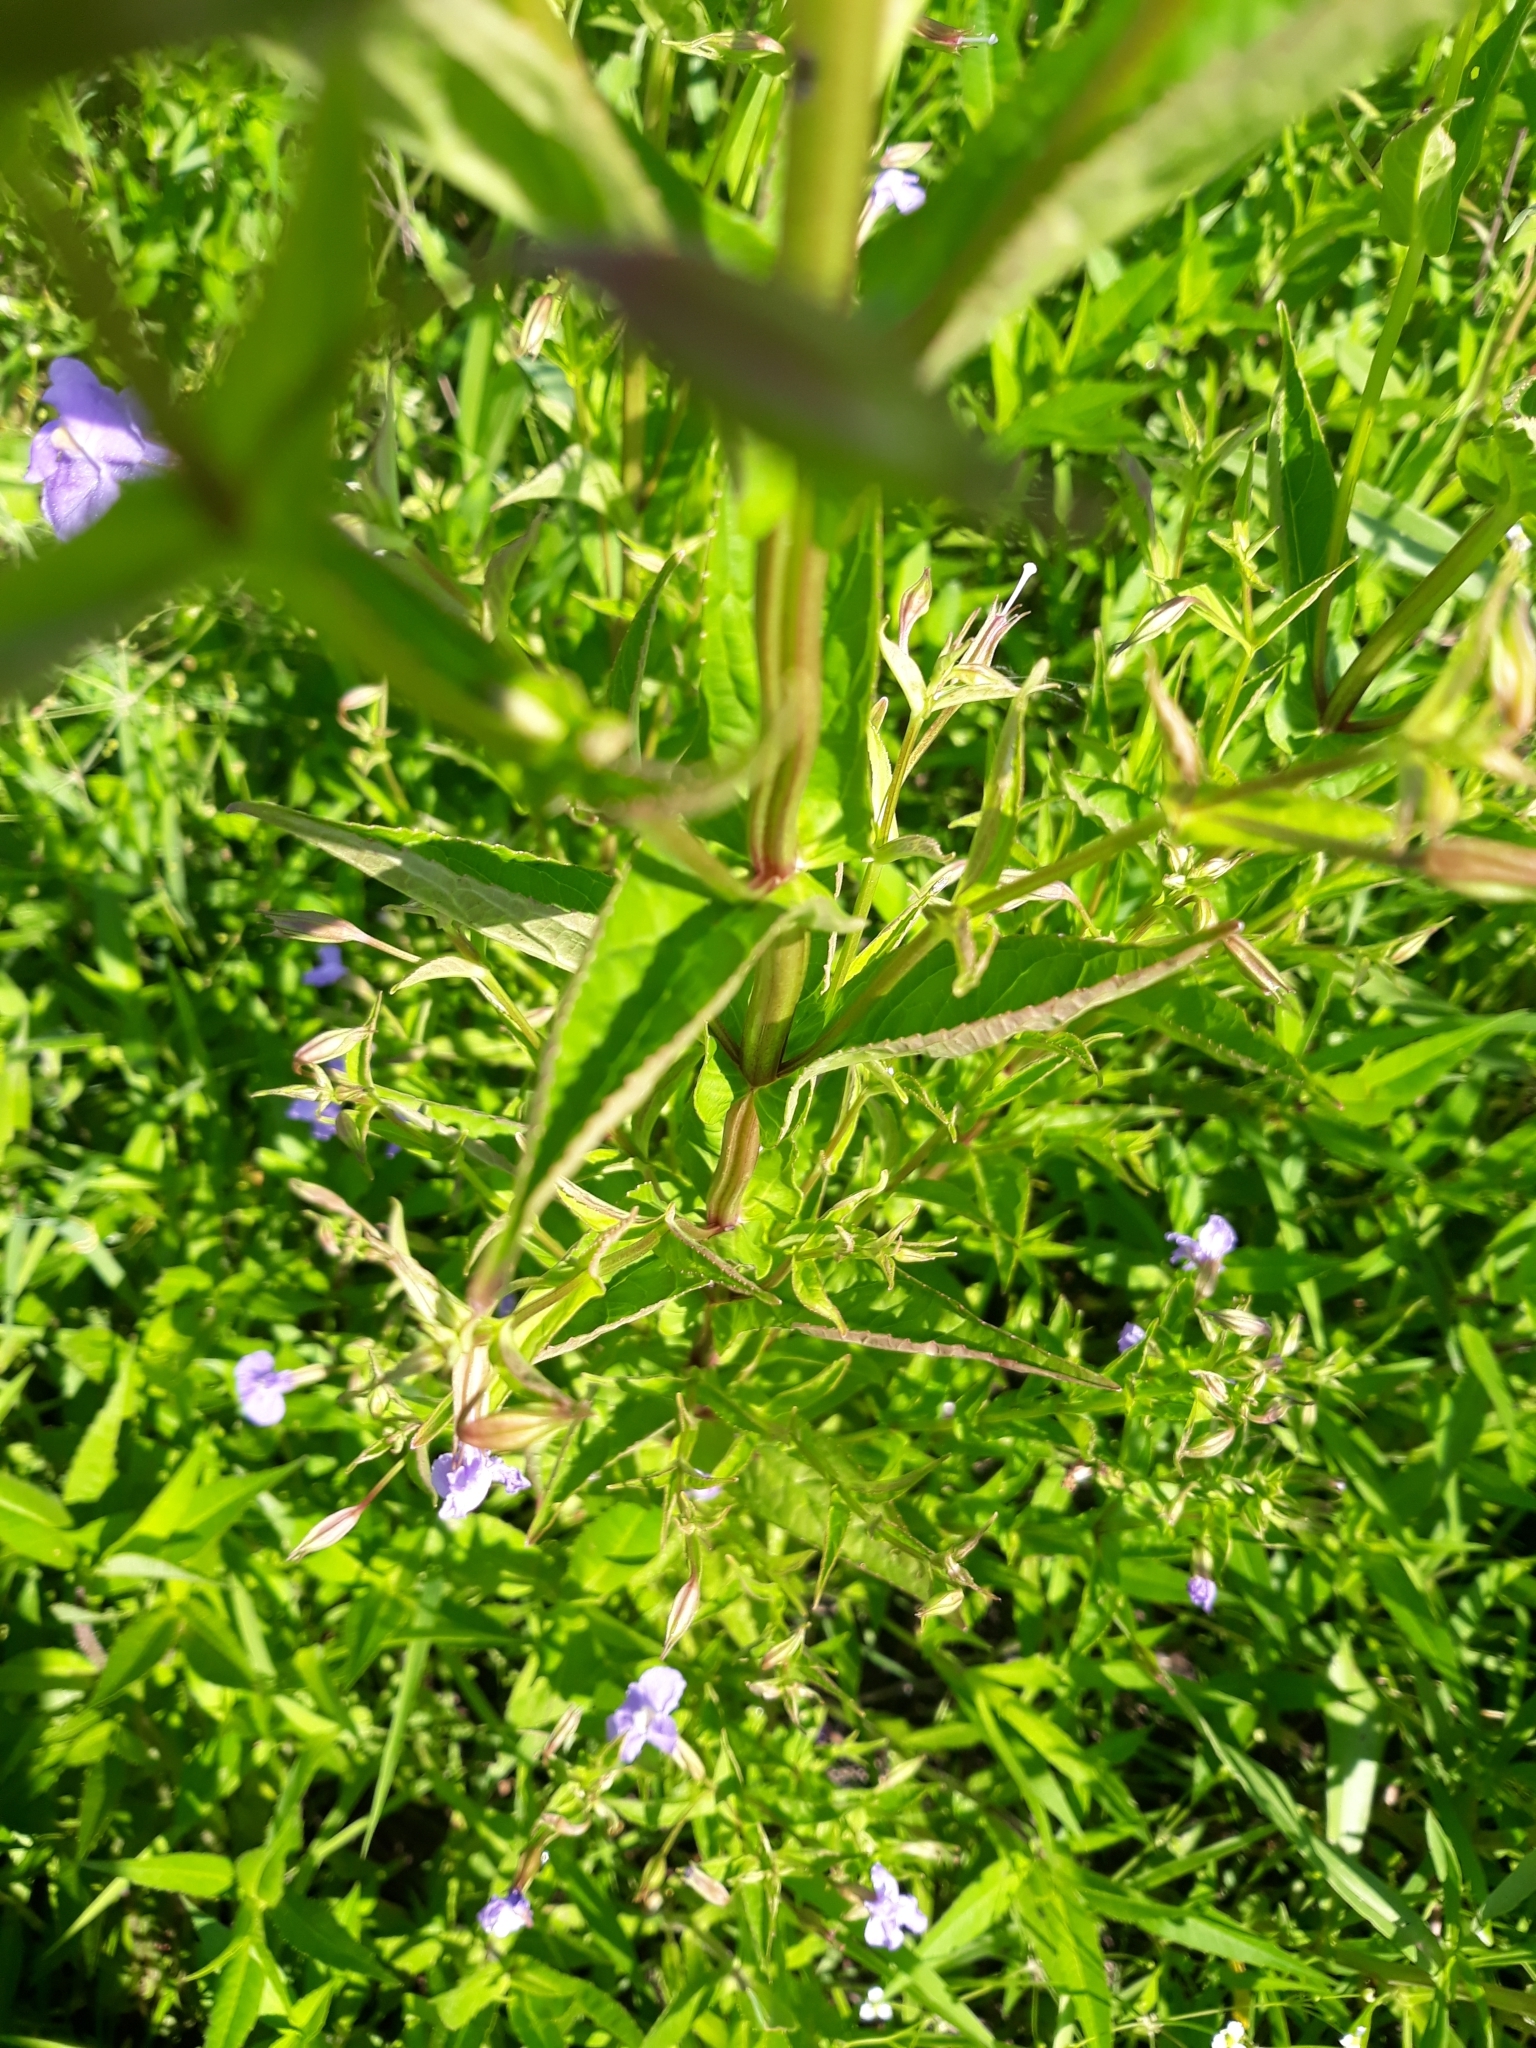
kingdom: Plantae
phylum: Tracheophyta
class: Magnoliopsida
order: Lamiales
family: Phrymaceae
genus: Mimulus
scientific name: Mimulus ringens
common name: Allegheny monkeyflower
